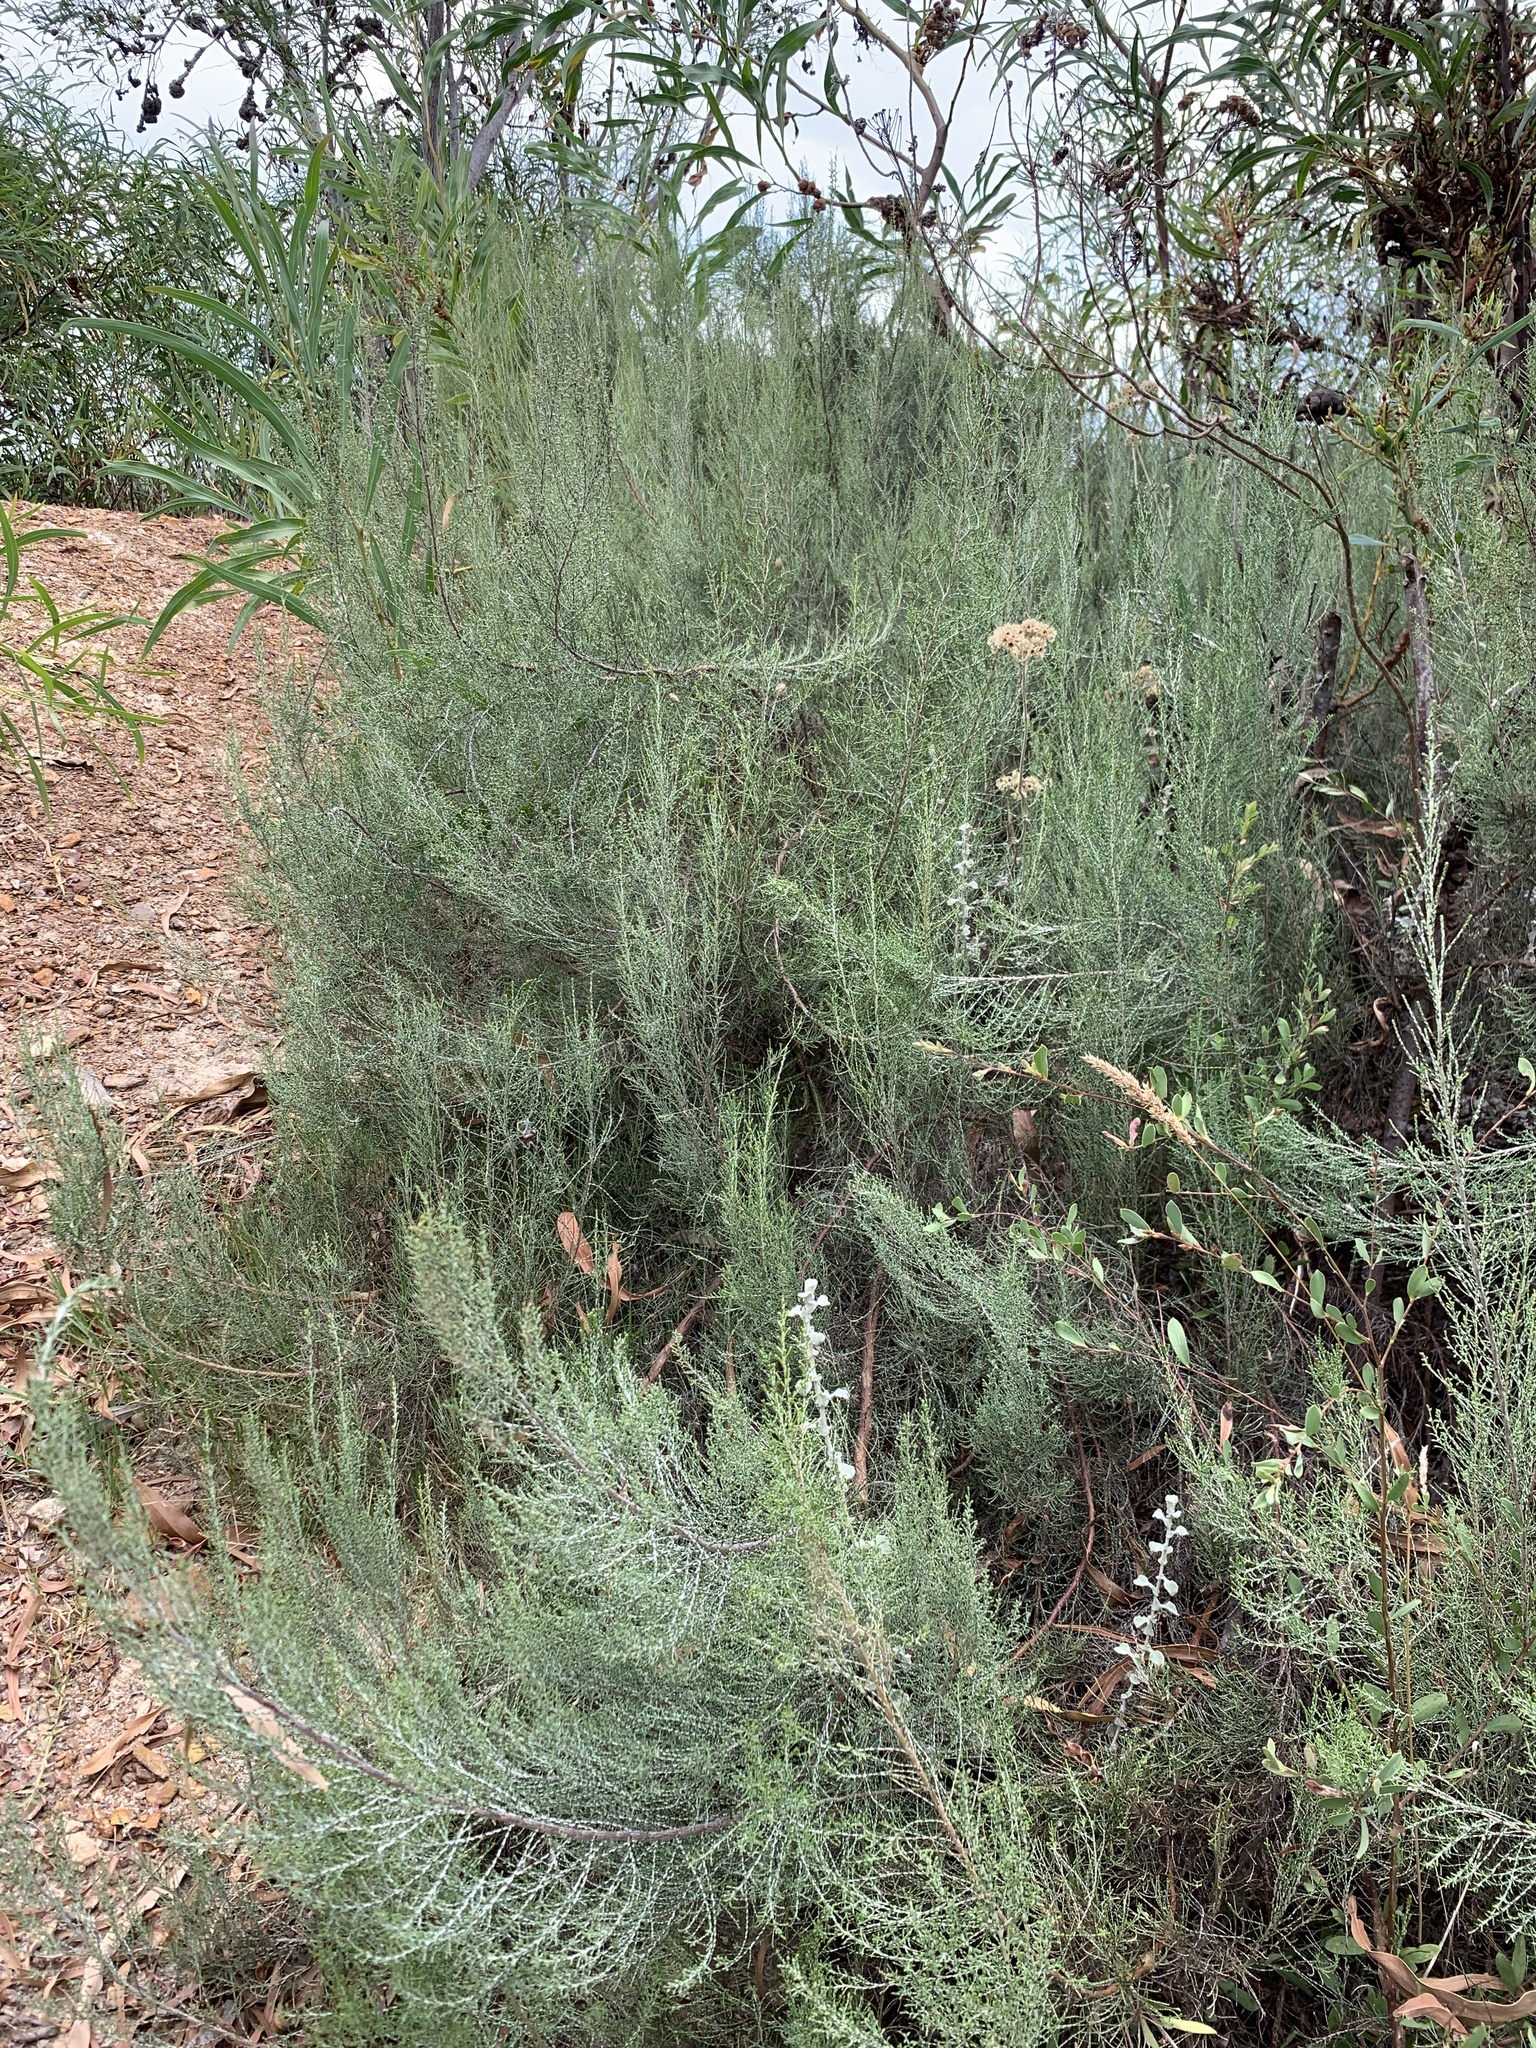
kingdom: Plantae
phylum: Tracheophyta
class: Magnoliopsida
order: Asterales
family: Asteraceae
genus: Dicerothamnus
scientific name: Dicerothamnus rhinocerotis
